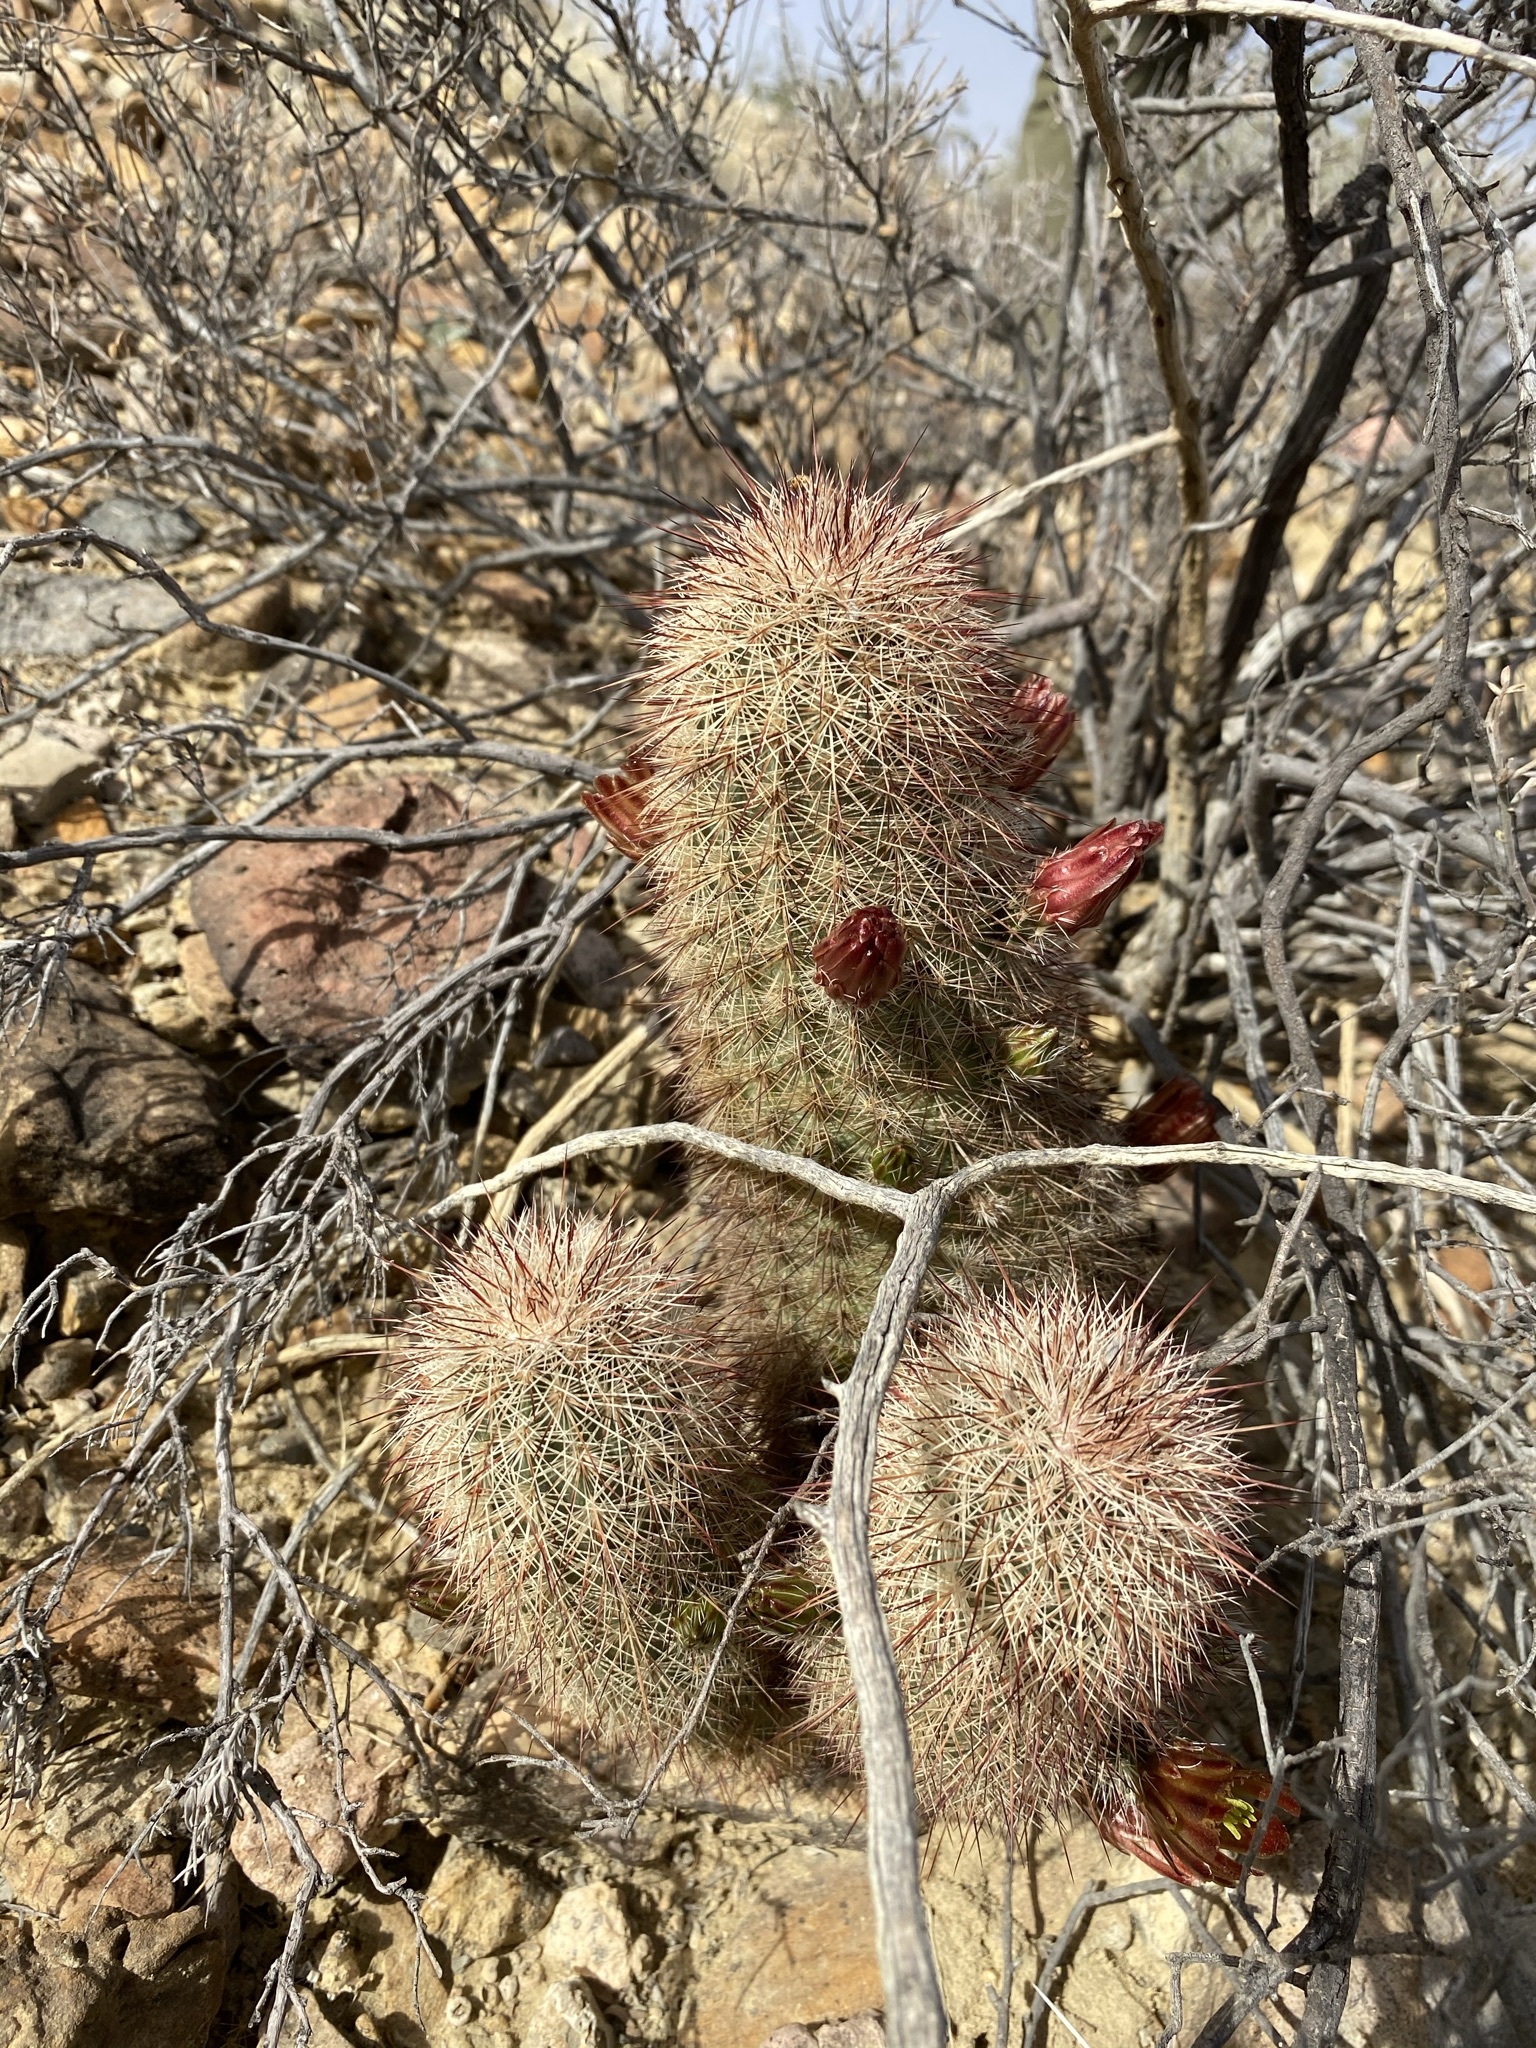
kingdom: Plantae
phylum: Tracheophyta
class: Magnoliopsida
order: Caryophyllales
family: Cactaceae
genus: Echinocereus
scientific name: Echinocereus russanthus
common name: Brownspine hedgehog cactus
